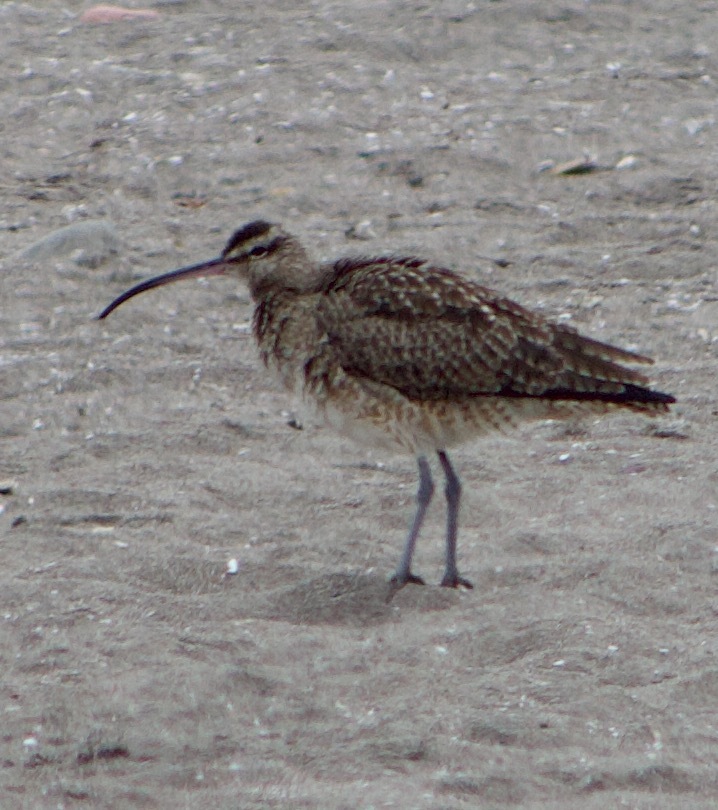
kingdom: Animalia
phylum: Chordata
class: Aves
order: Charadriiformes
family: Scolopacidae
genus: Numenius
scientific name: Numenius phaeopus
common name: Whimbrel
